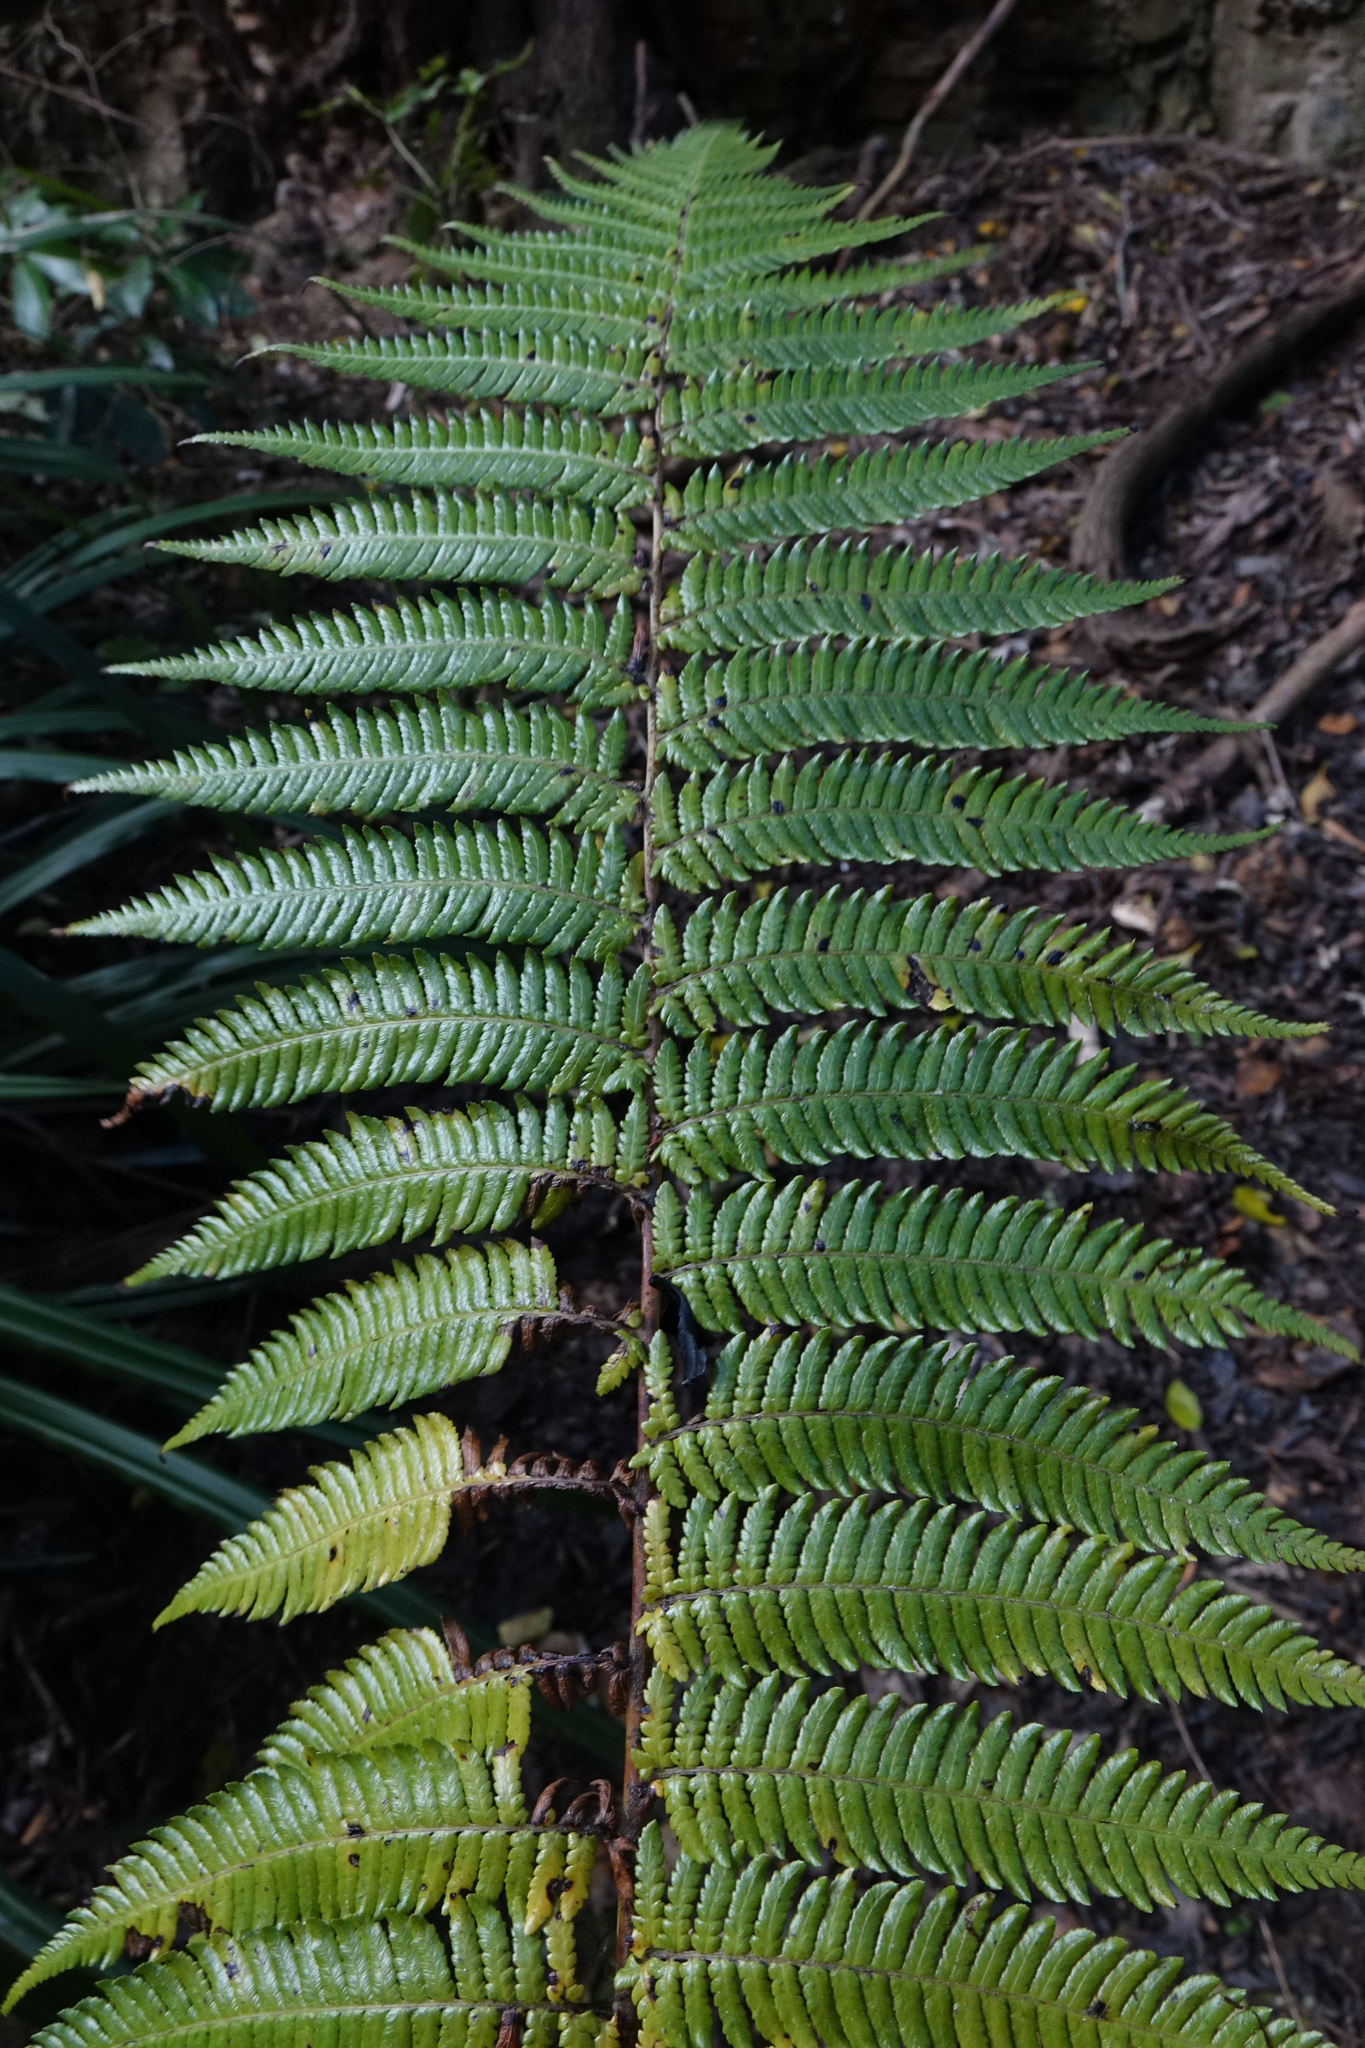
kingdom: Plantae
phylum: Tracheophyta
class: Polypodiopsida
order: Cyatheales
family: Cyatheaceae
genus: Sphaeropteris
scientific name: Sphaeropteris medullaris
